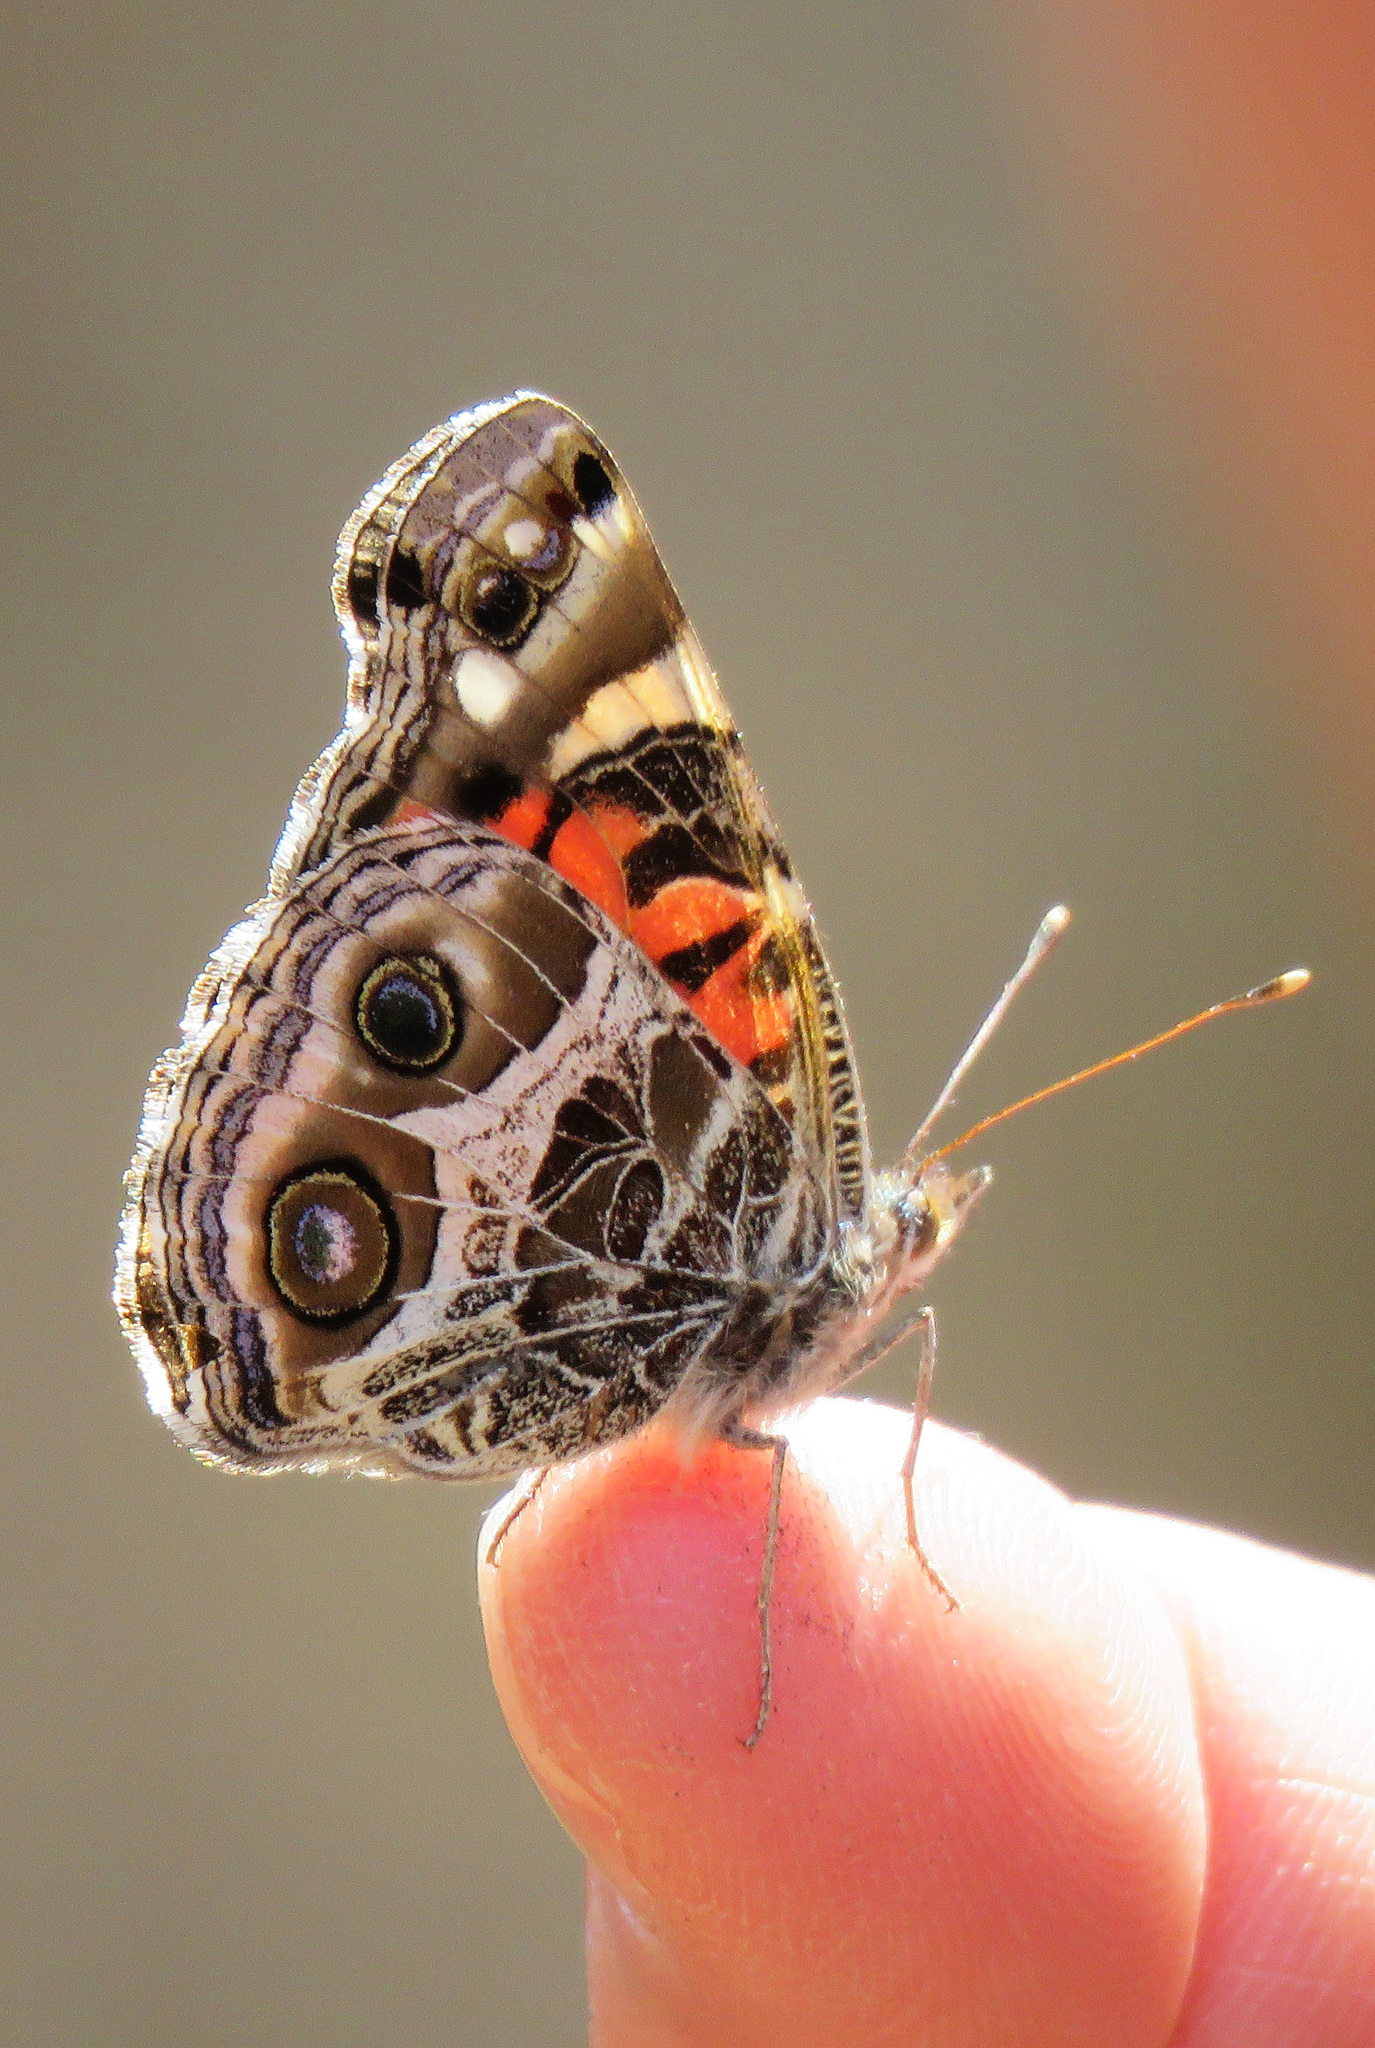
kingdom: Animalia
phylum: Arthropoda
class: Insecta
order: Lepidoptera
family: Nymphalidae
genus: Vanessa
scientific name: Vanessa virginiensis
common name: American lady
